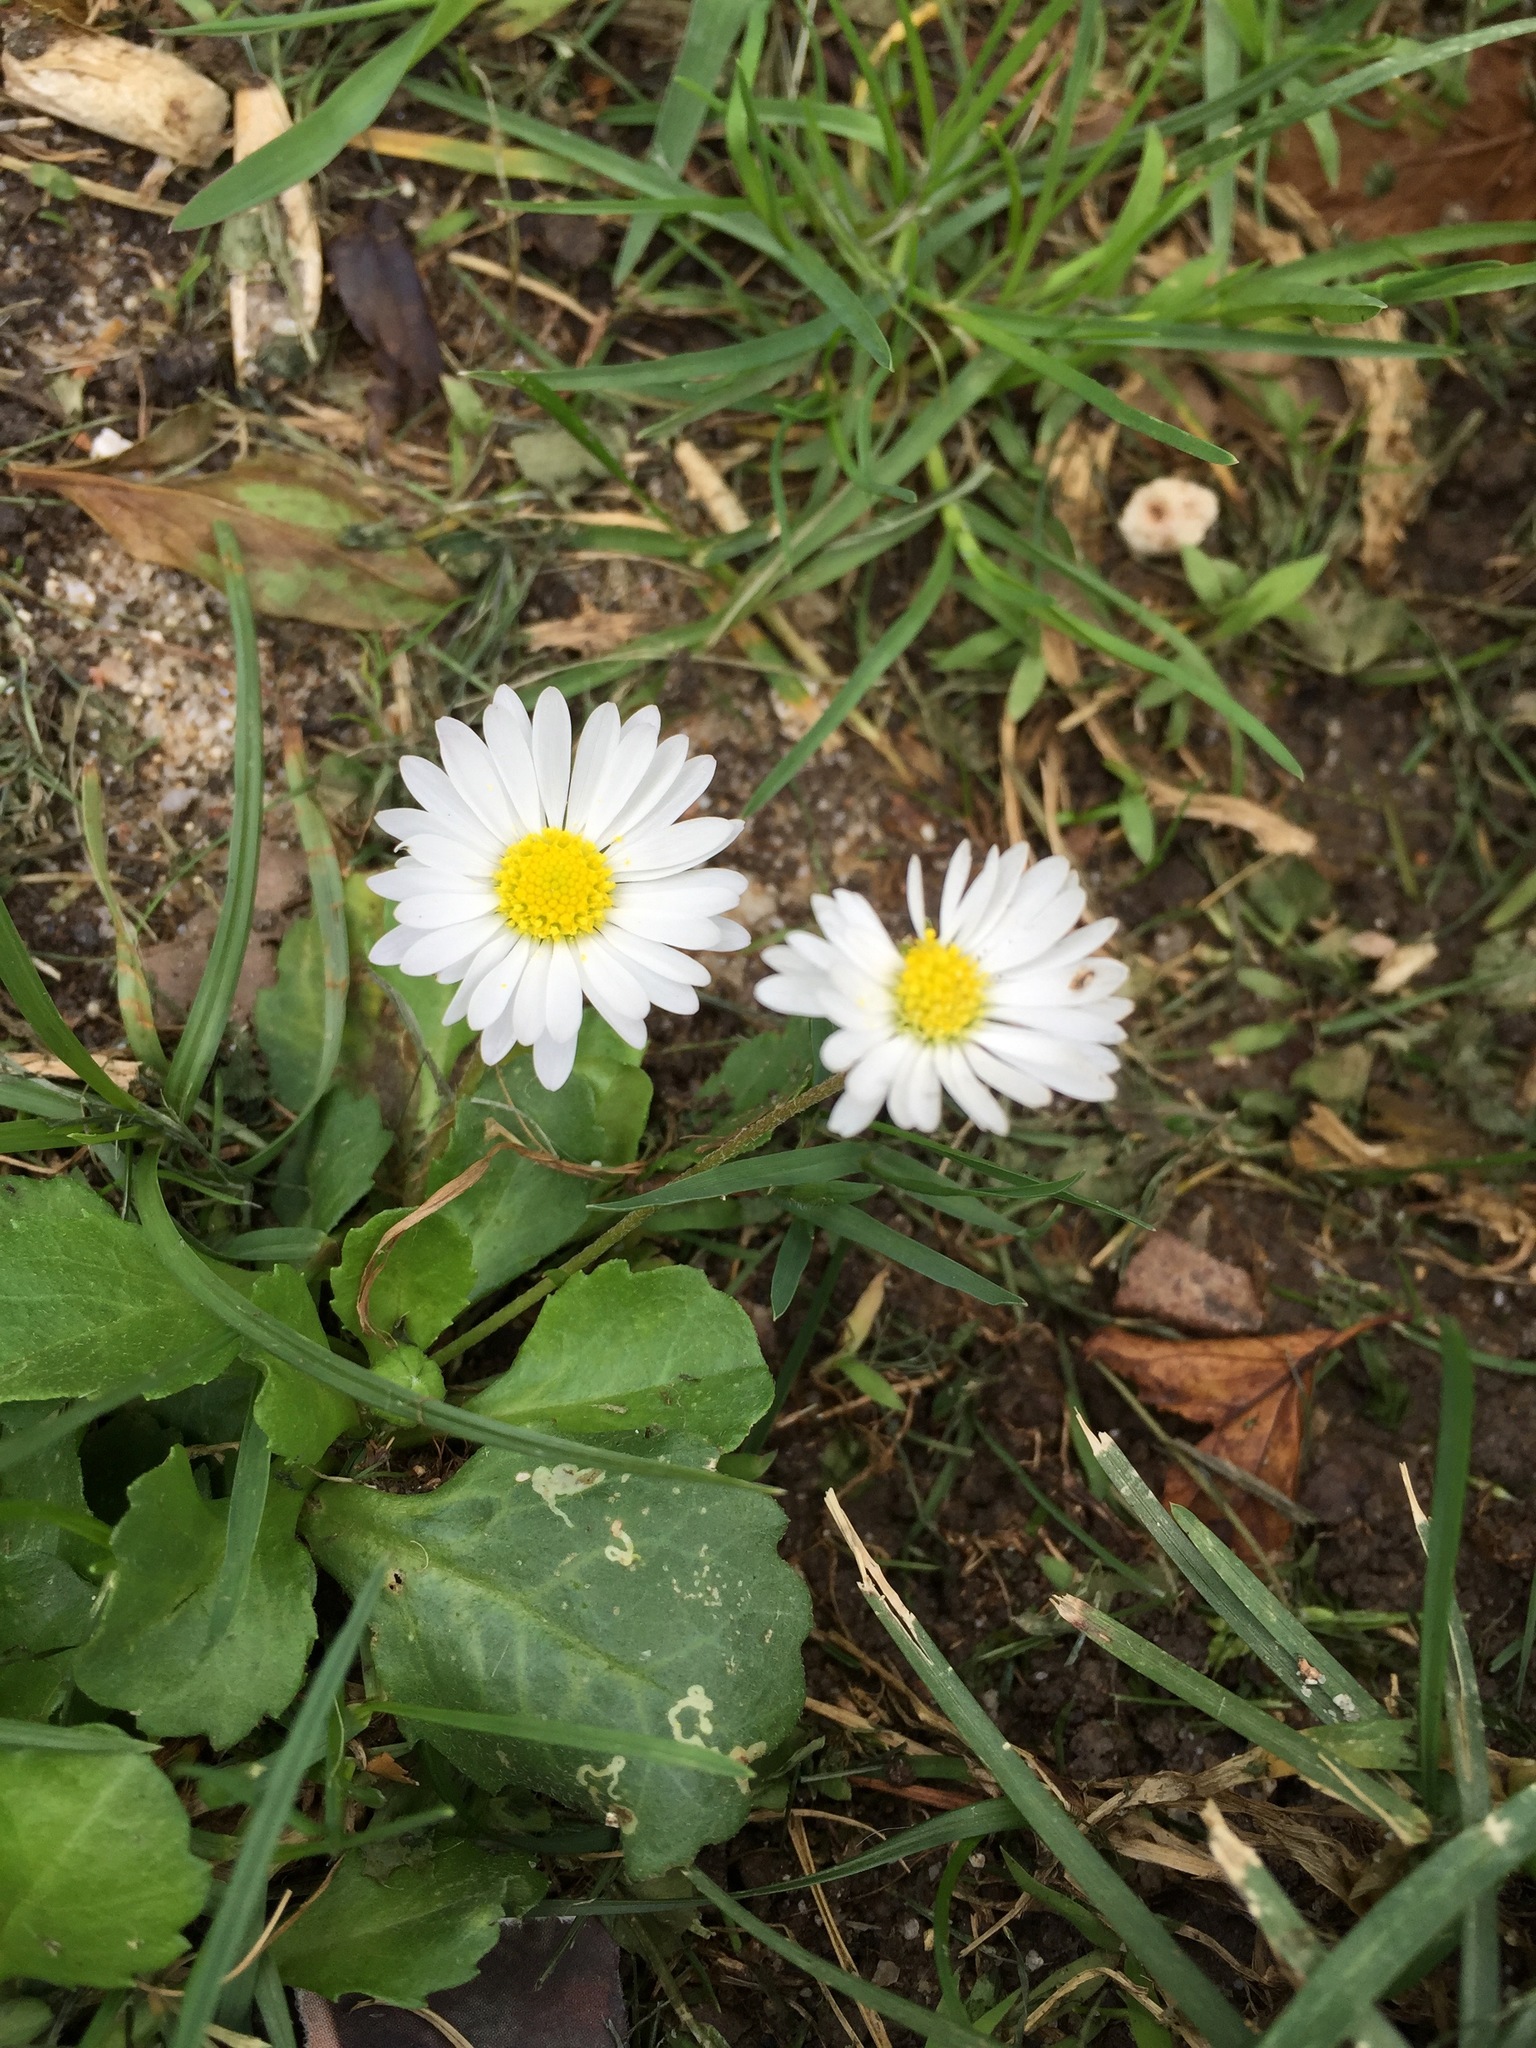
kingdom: Plantae
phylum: Tracheophyta
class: Magnoliopsida
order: Asterales
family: Asteraceae
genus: Bellis
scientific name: Bellis perennis
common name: Lawndaisy
